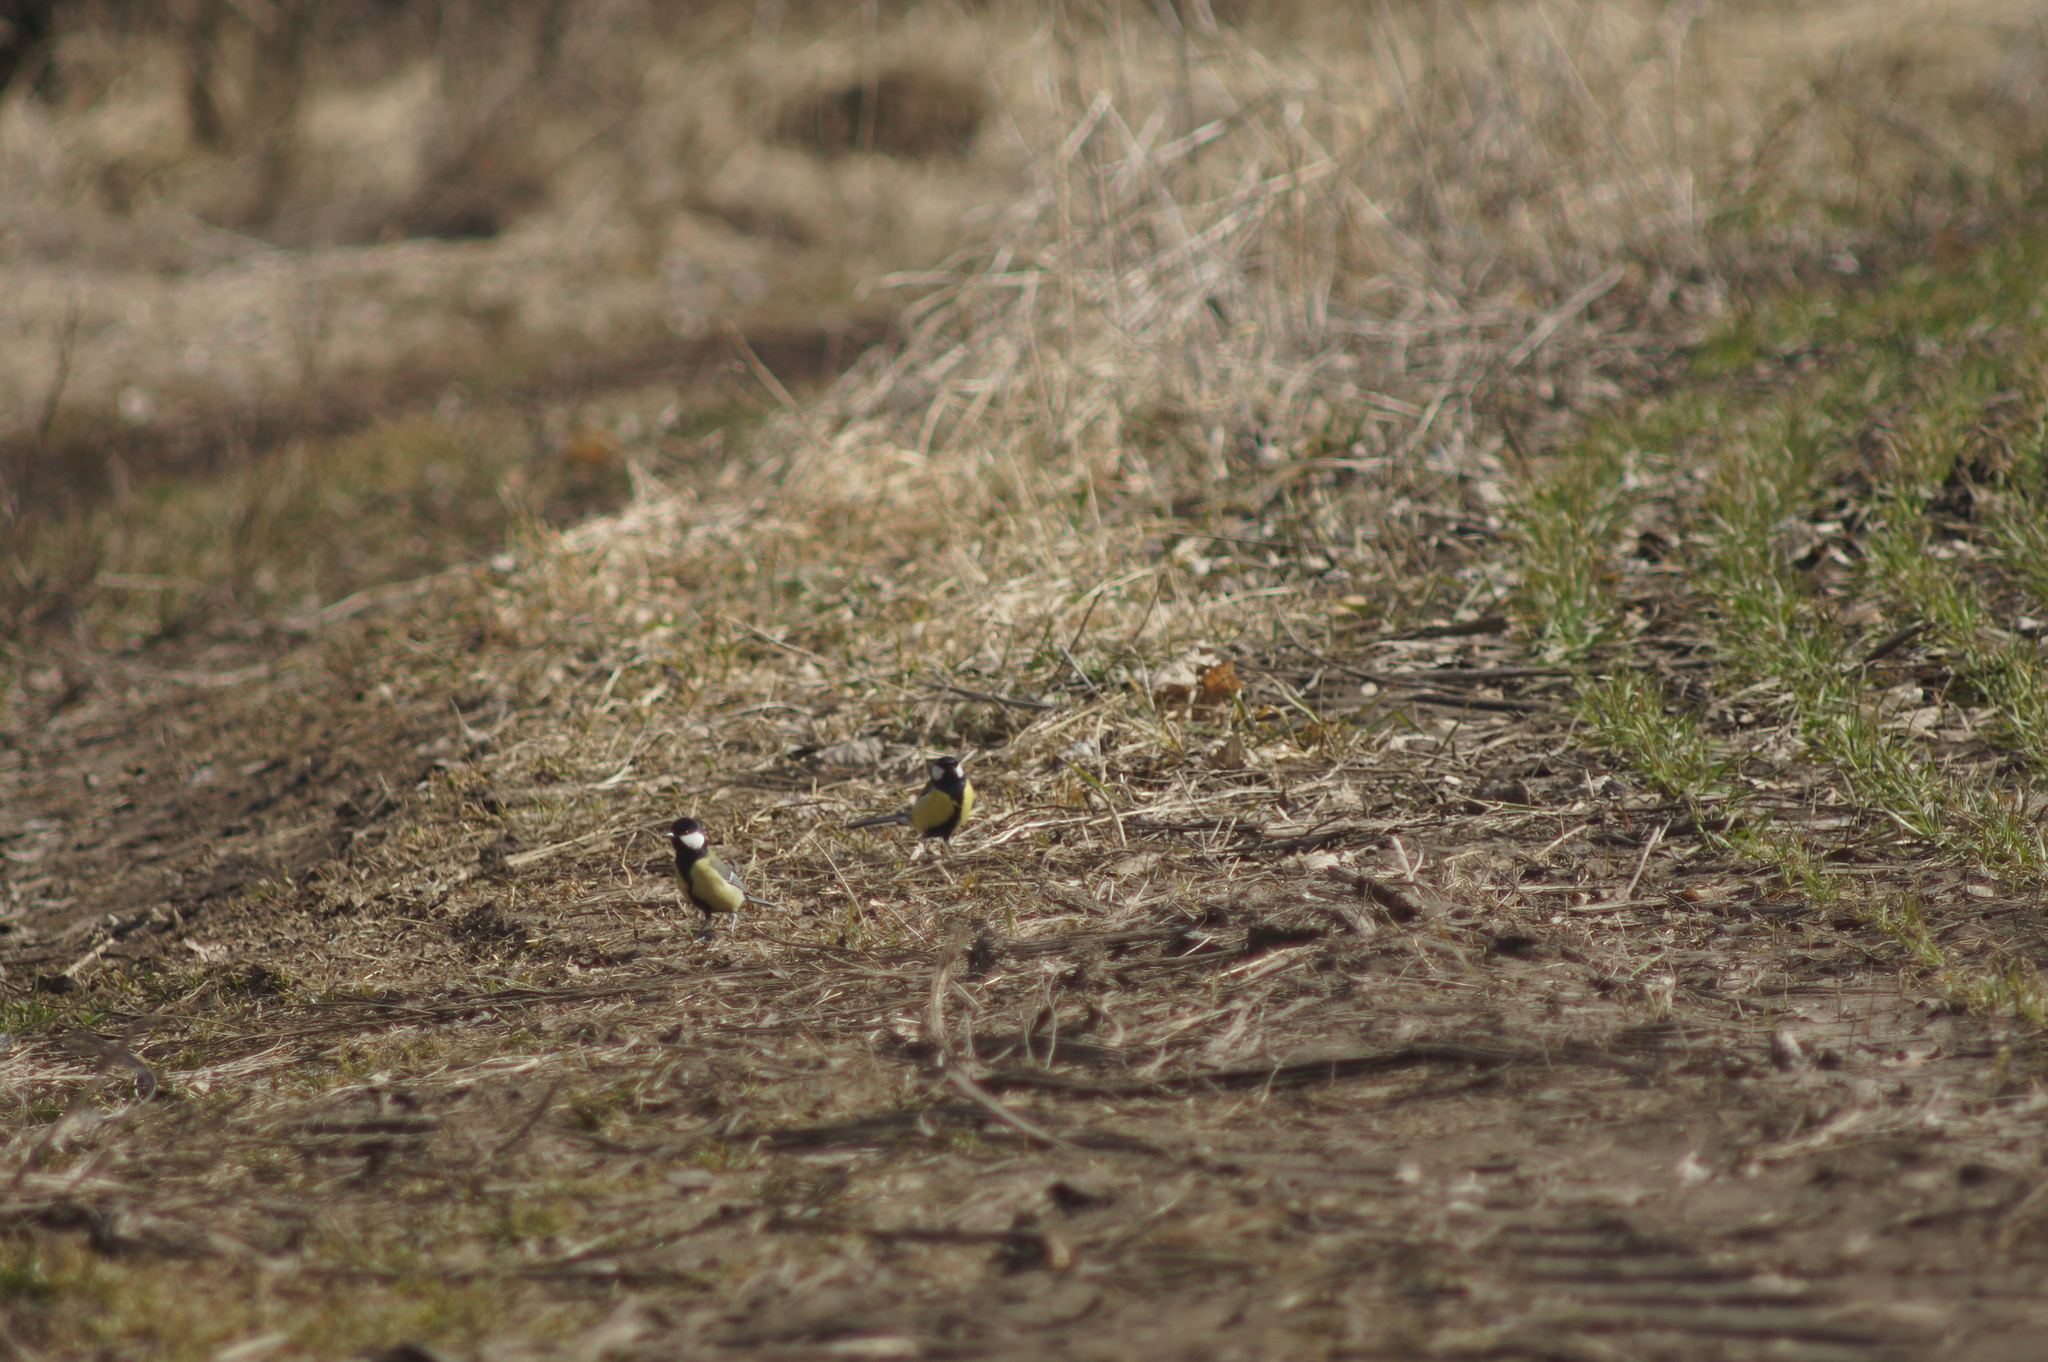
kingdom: Animalia
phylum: Chordata
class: Aves
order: Passeriformes
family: Paridae
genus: Parus
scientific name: Parus major
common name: Great tit
